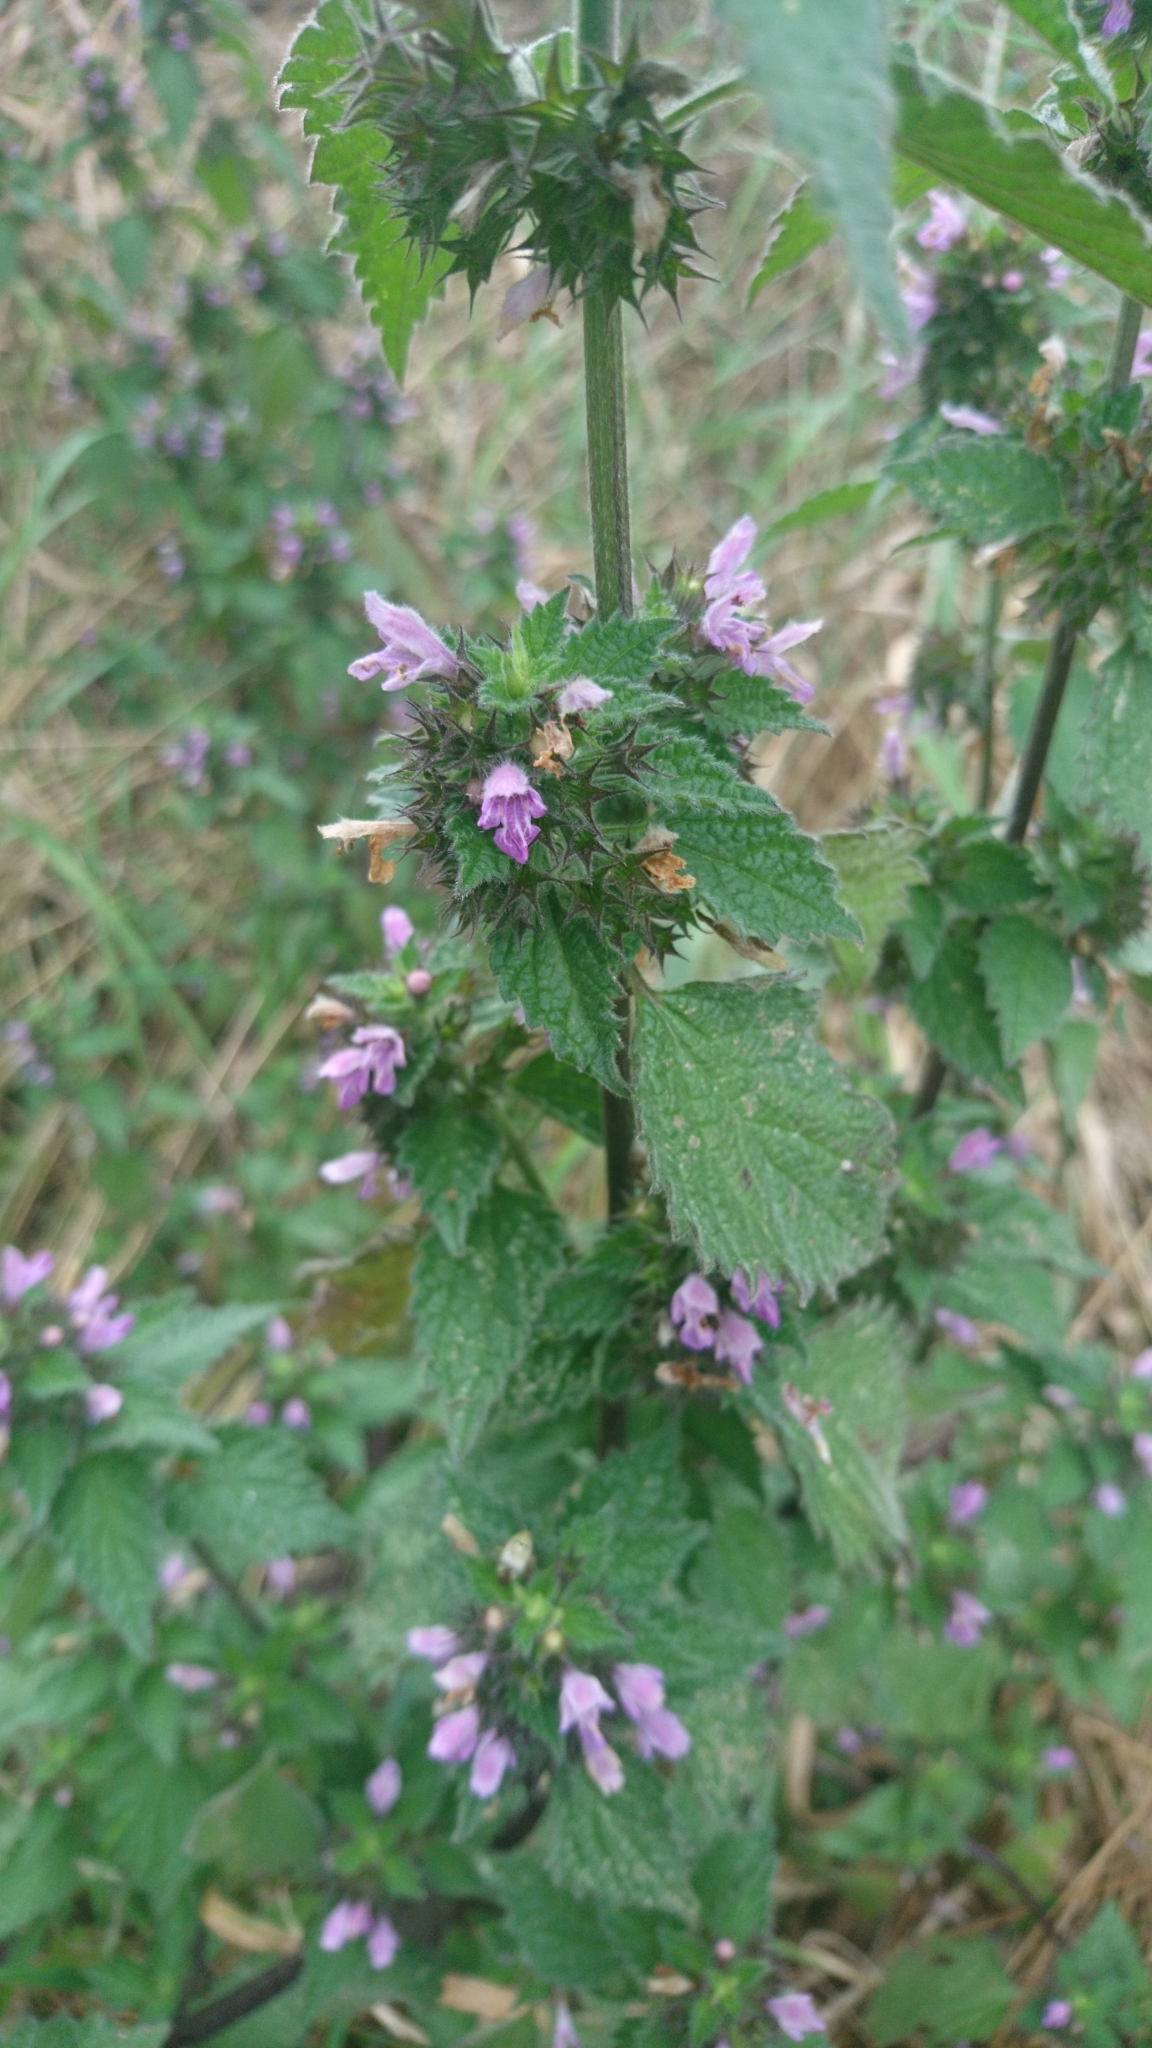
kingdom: Plantae
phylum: Tracheophyta
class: Magnoliopsida
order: Lamiales
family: Lamiaceae
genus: Ballota
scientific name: Ballota nigra
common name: Black horehound
